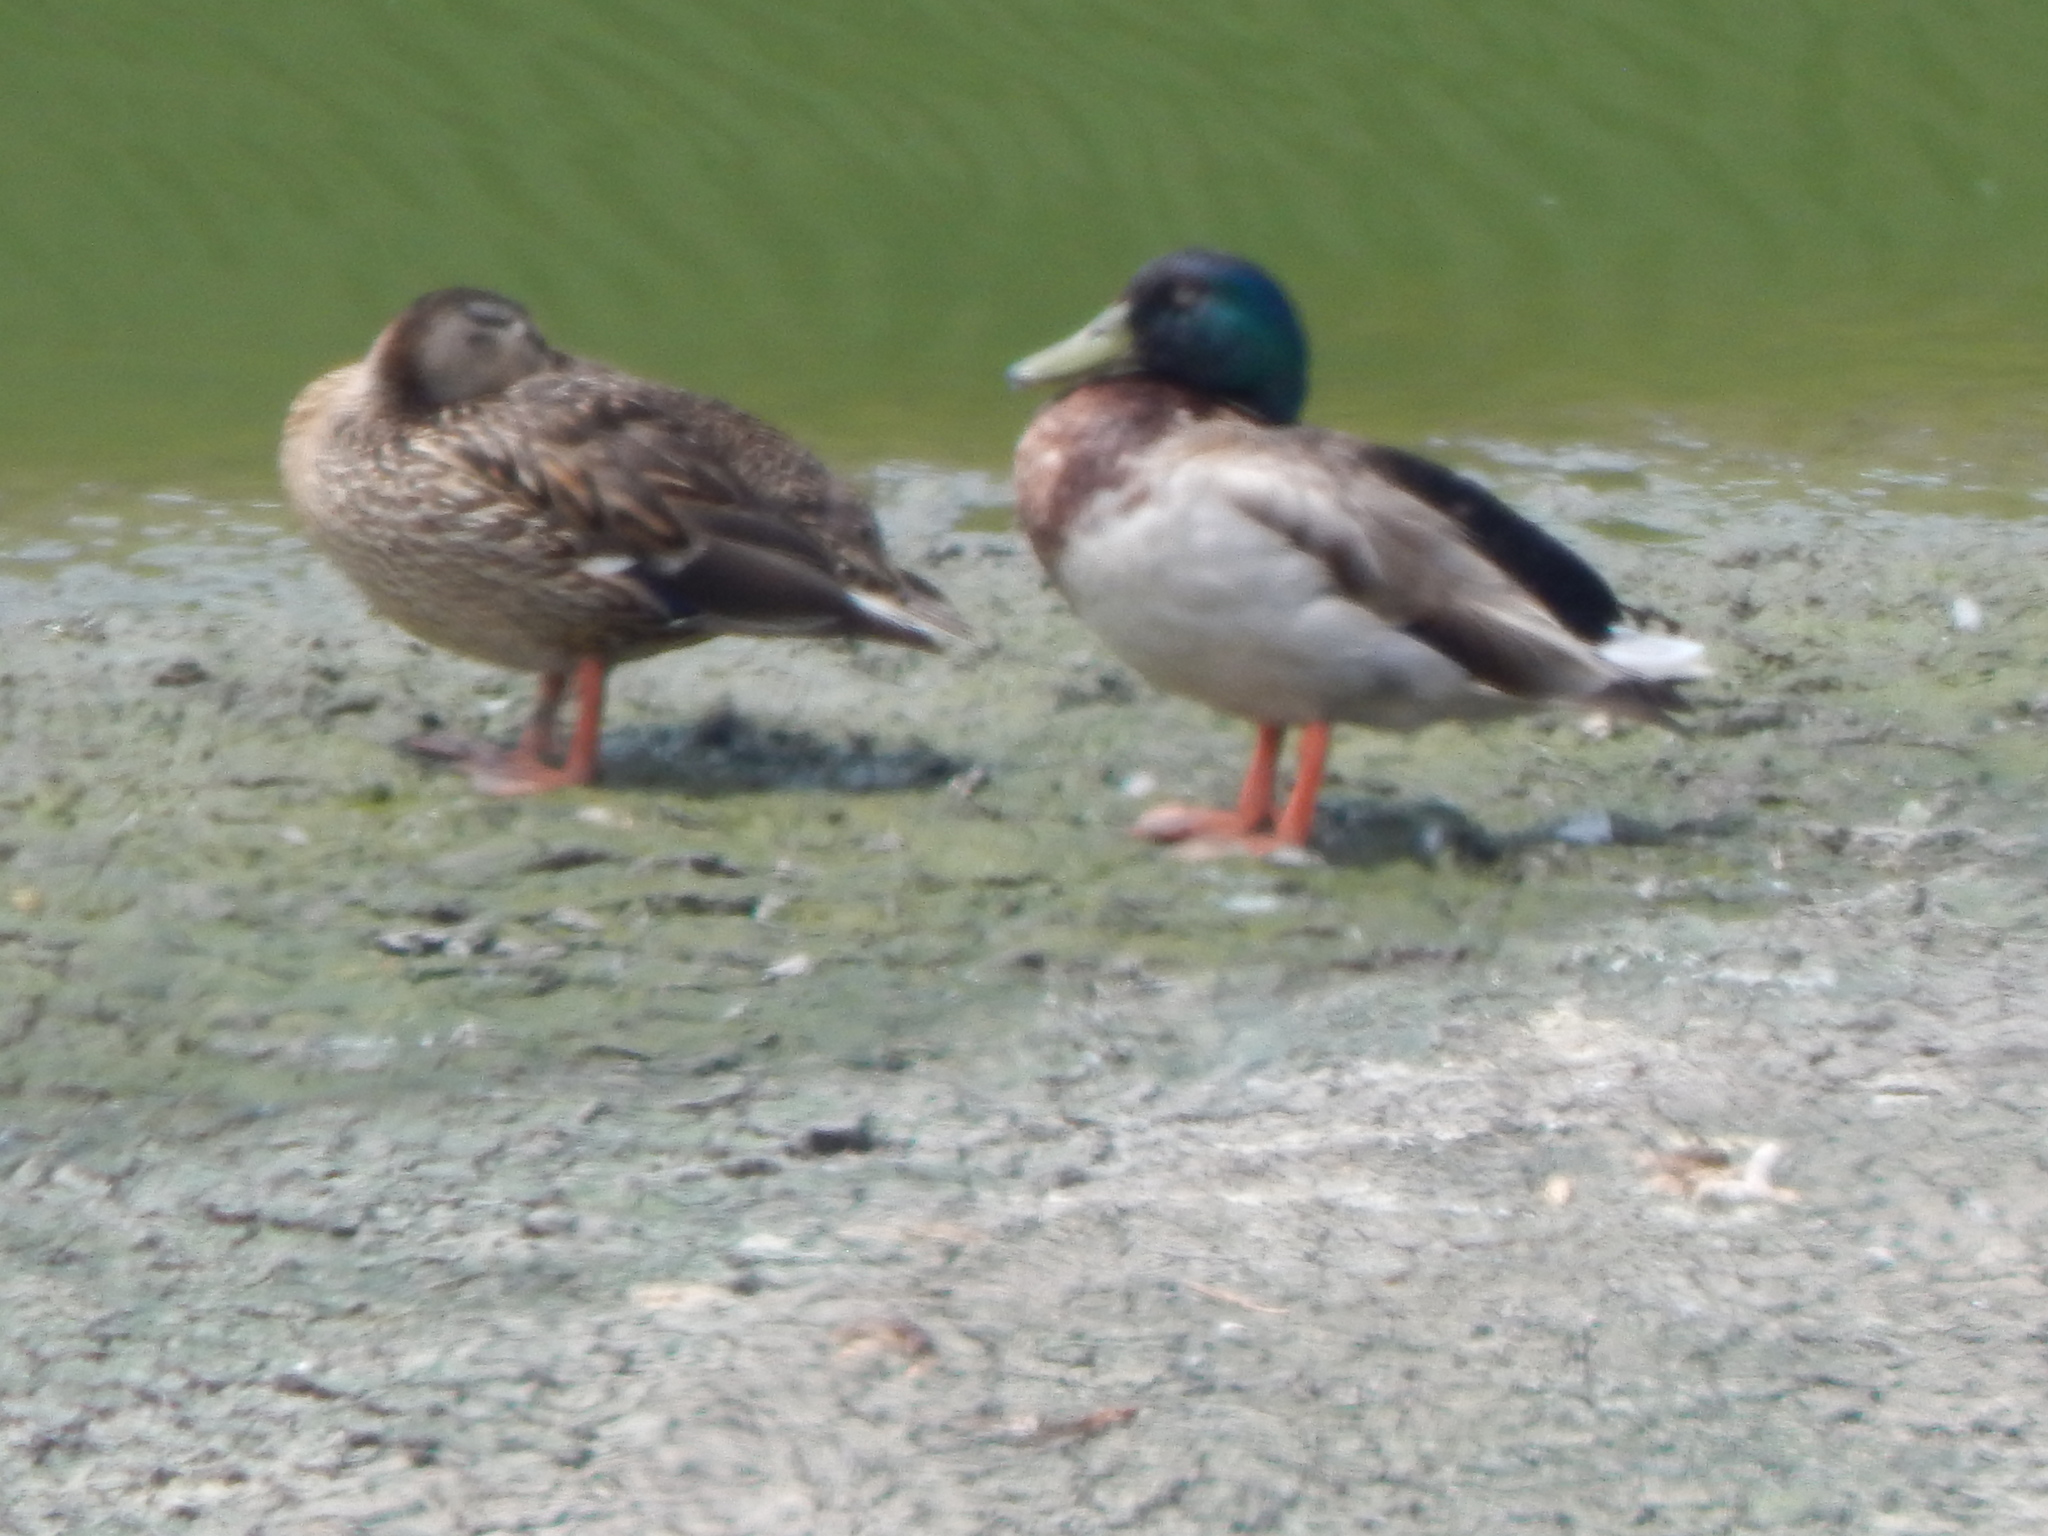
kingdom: Animalia
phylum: Chordata
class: Aves
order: Anseriformes
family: Anatidae
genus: Anas
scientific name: Anas platyrhynchos
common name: Mallard
